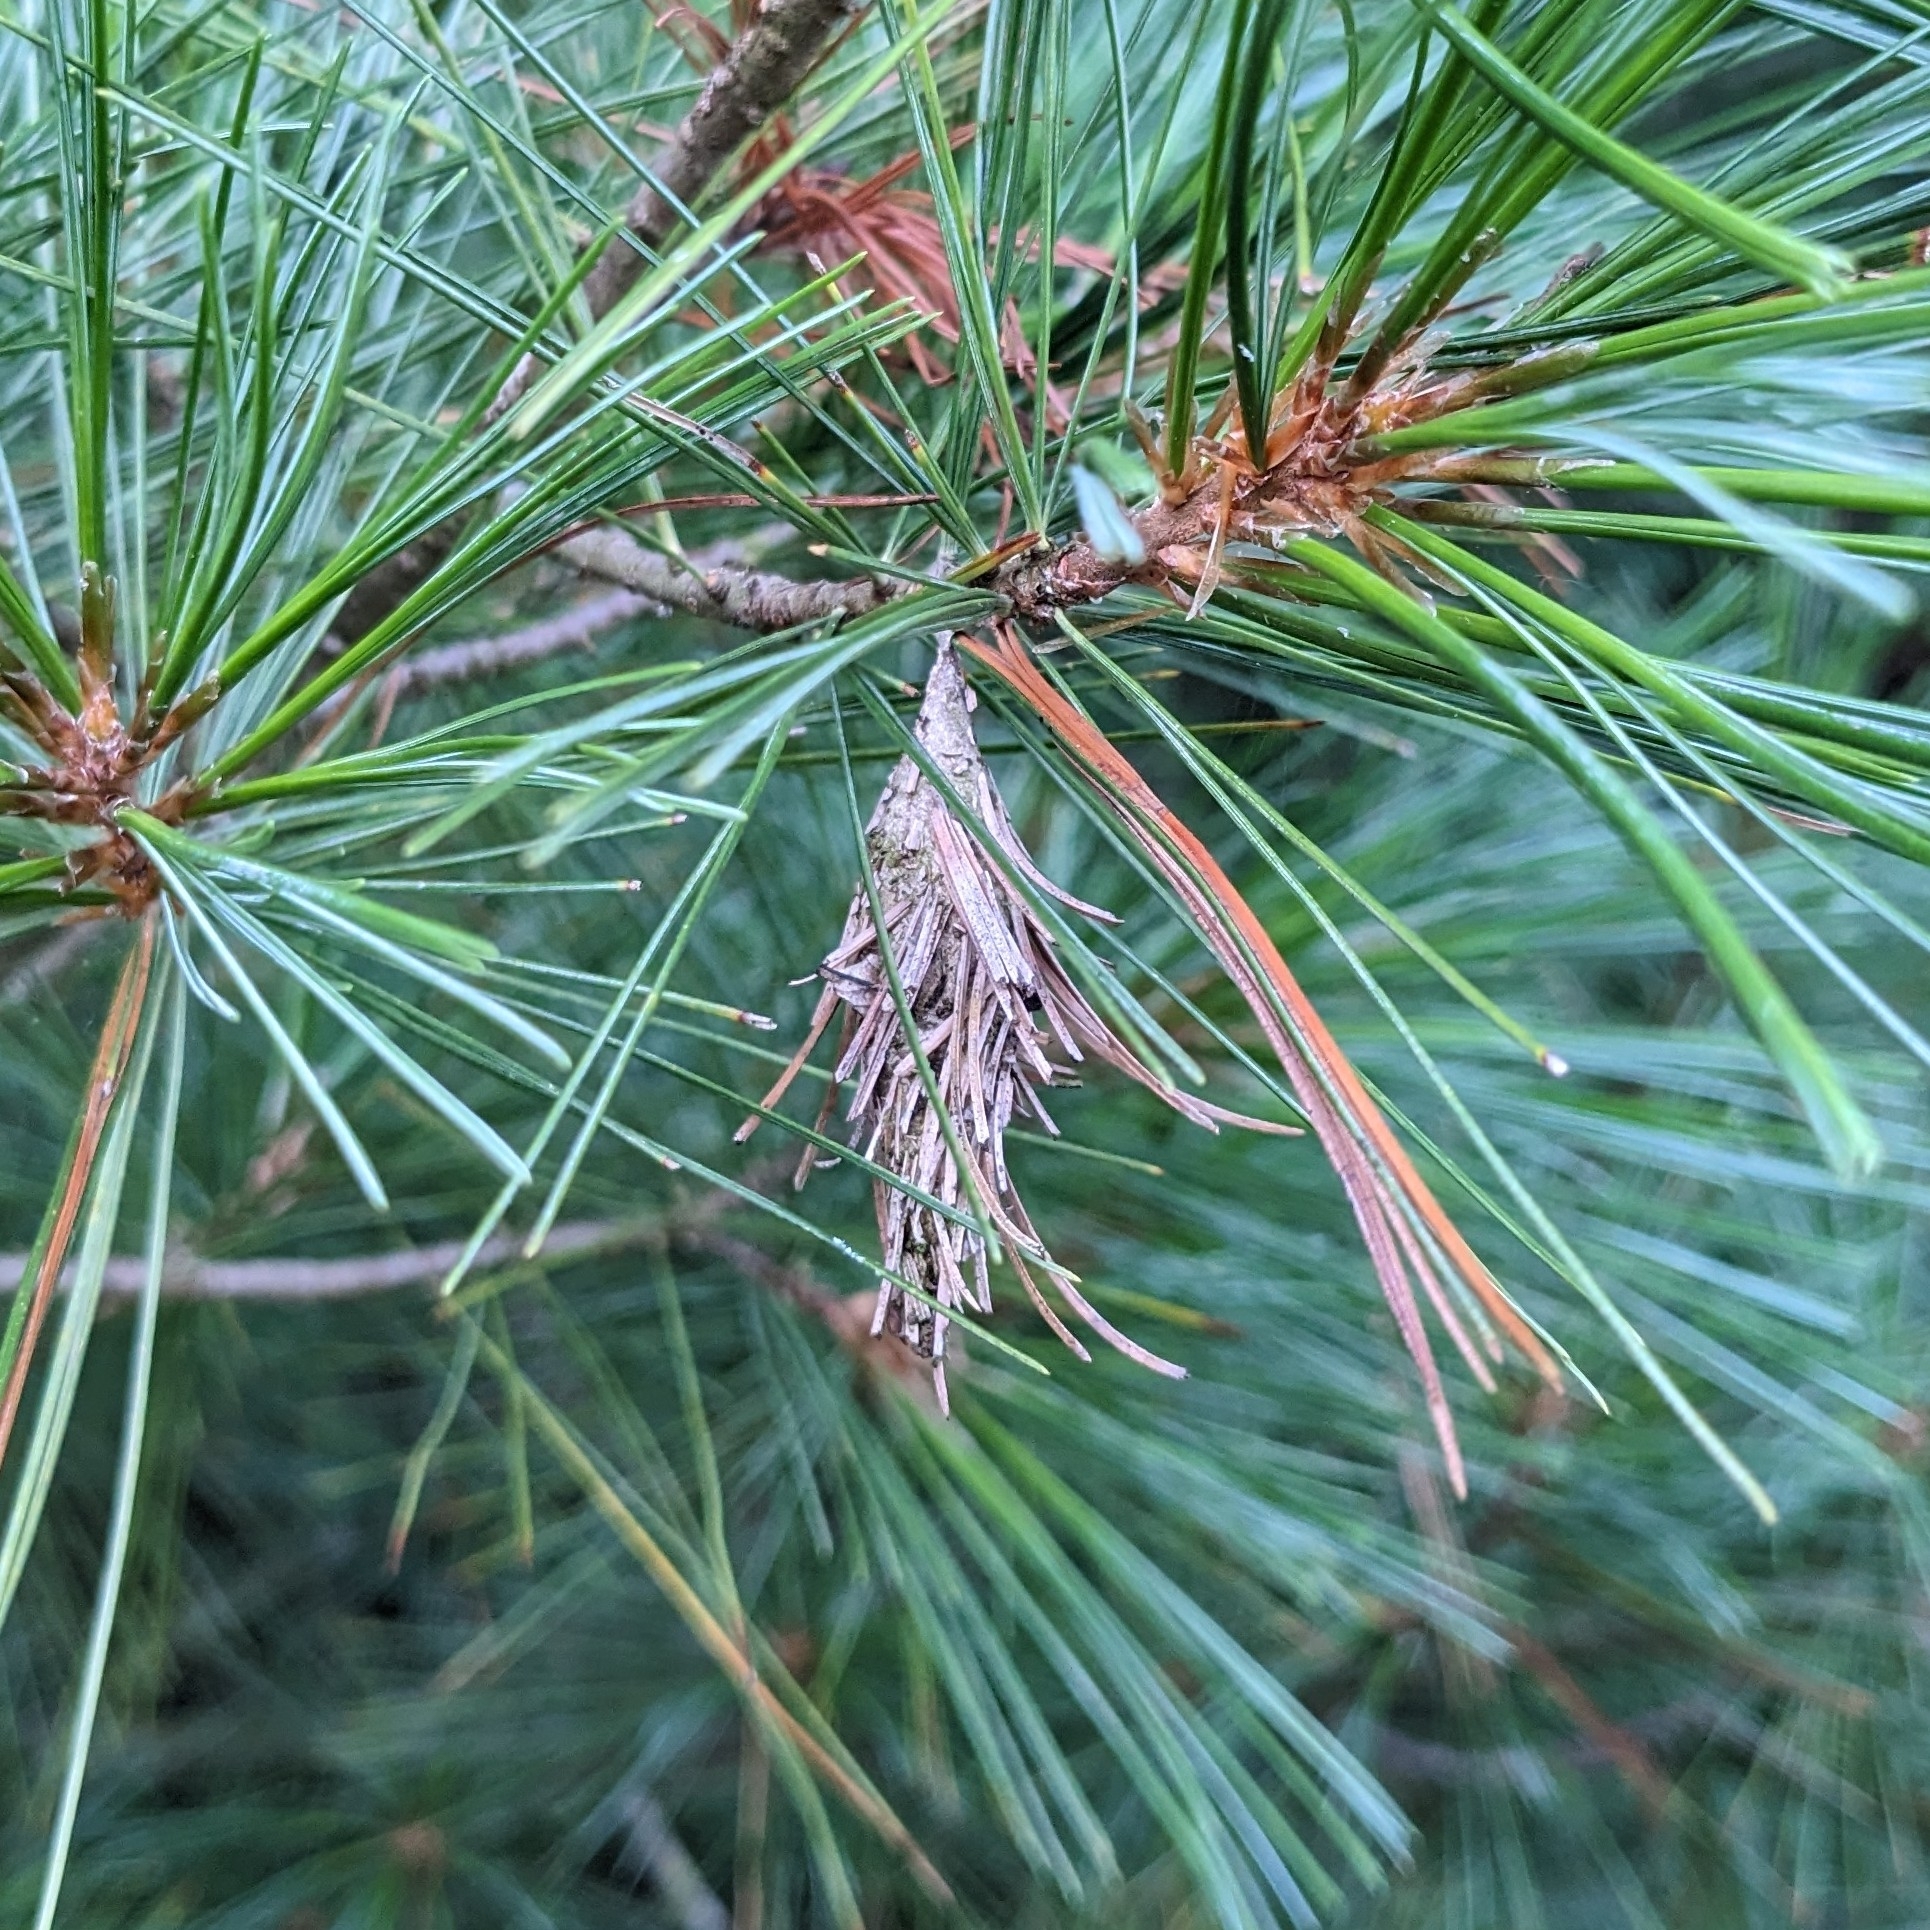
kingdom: Animalia
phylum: Arthropoda
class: Insecta
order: Lepidoptera
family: Psychidae
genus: Thyridopteryx
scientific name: Thyridopteryx ephemeraeformis
